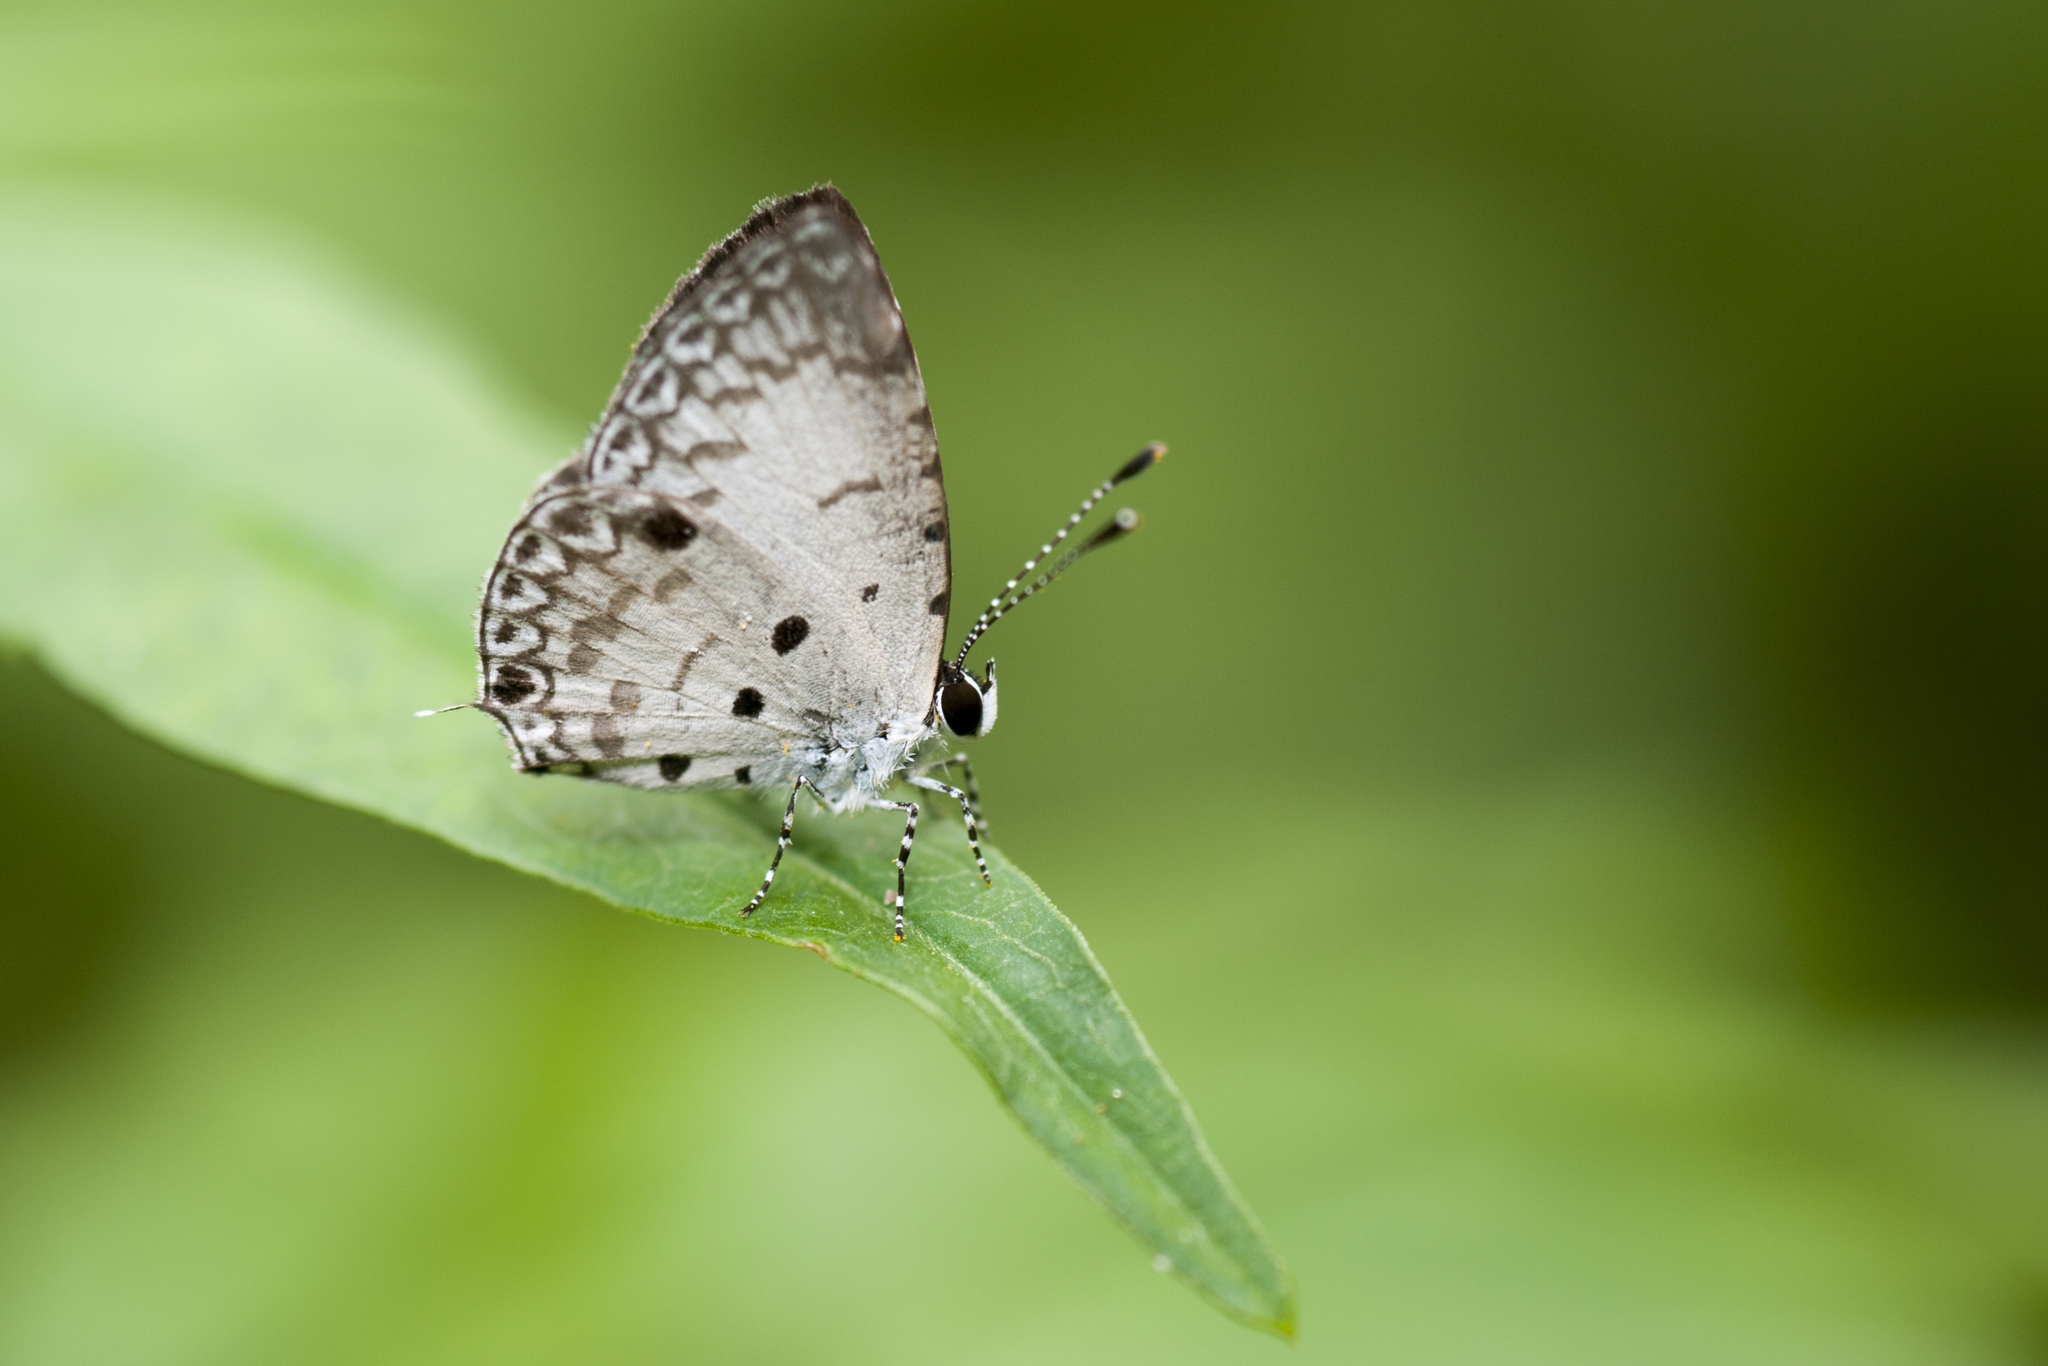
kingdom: Animalia
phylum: Arthropoda
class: Insecta
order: Lepidoptera
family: Lycaenidae
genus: Megisba
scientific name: Megisba malaya
